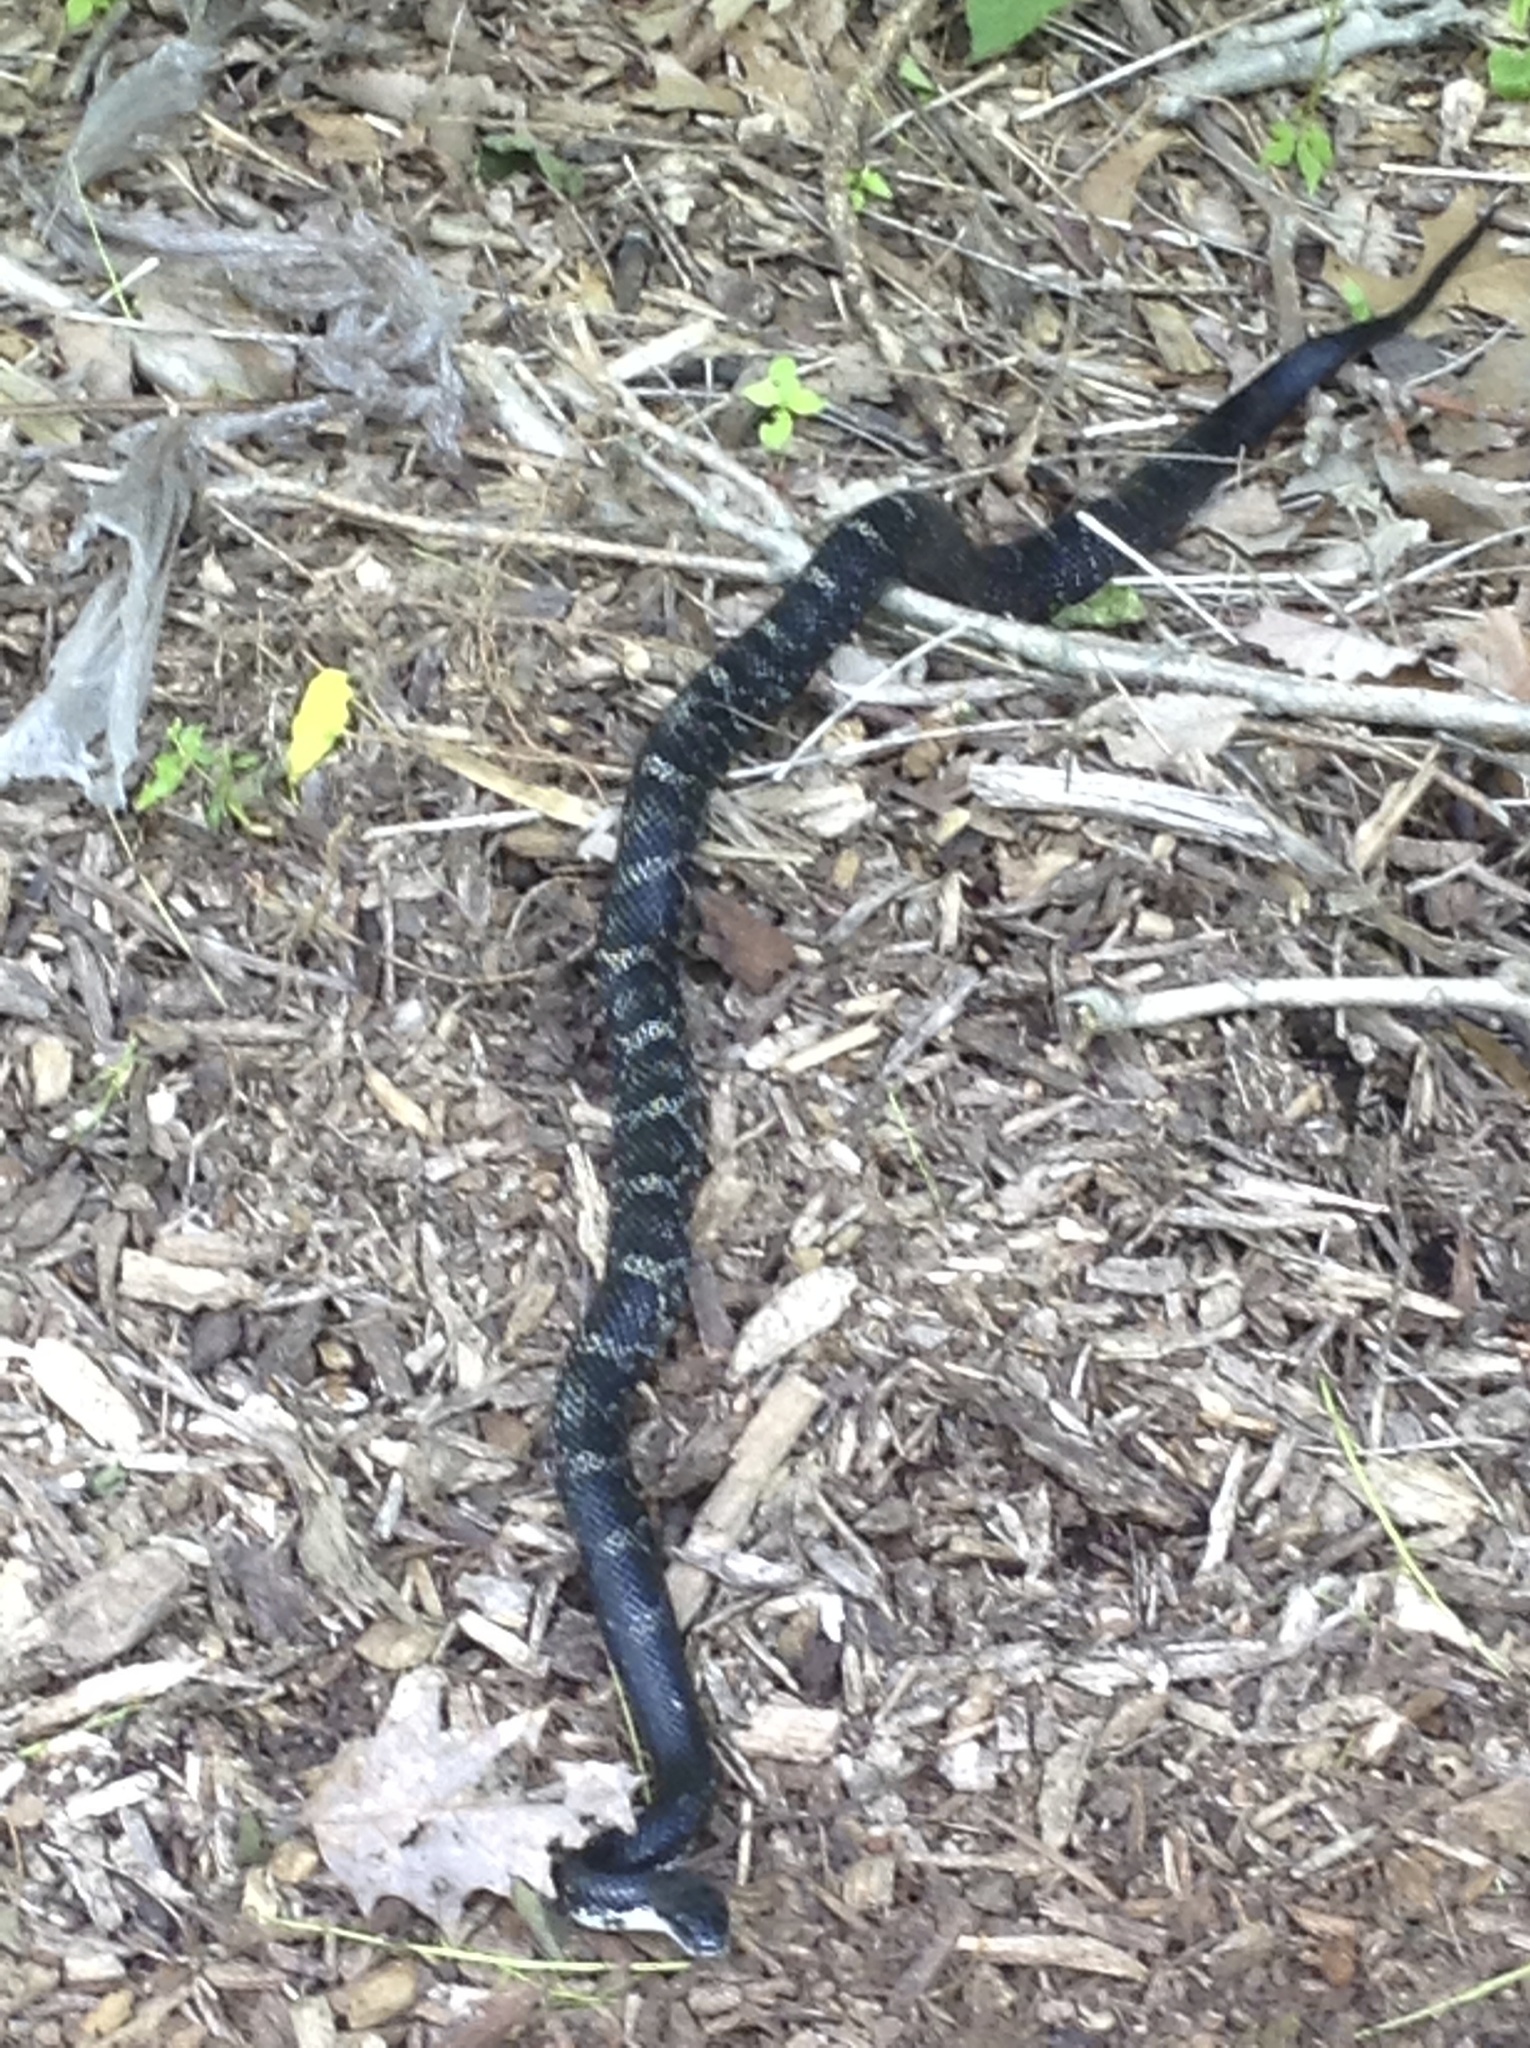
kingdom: Animalia
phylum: Chordata
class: Squamata
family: Colubridae
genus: Pantherophis
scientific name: Pantherophis spiloides
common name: Gray rat snake
